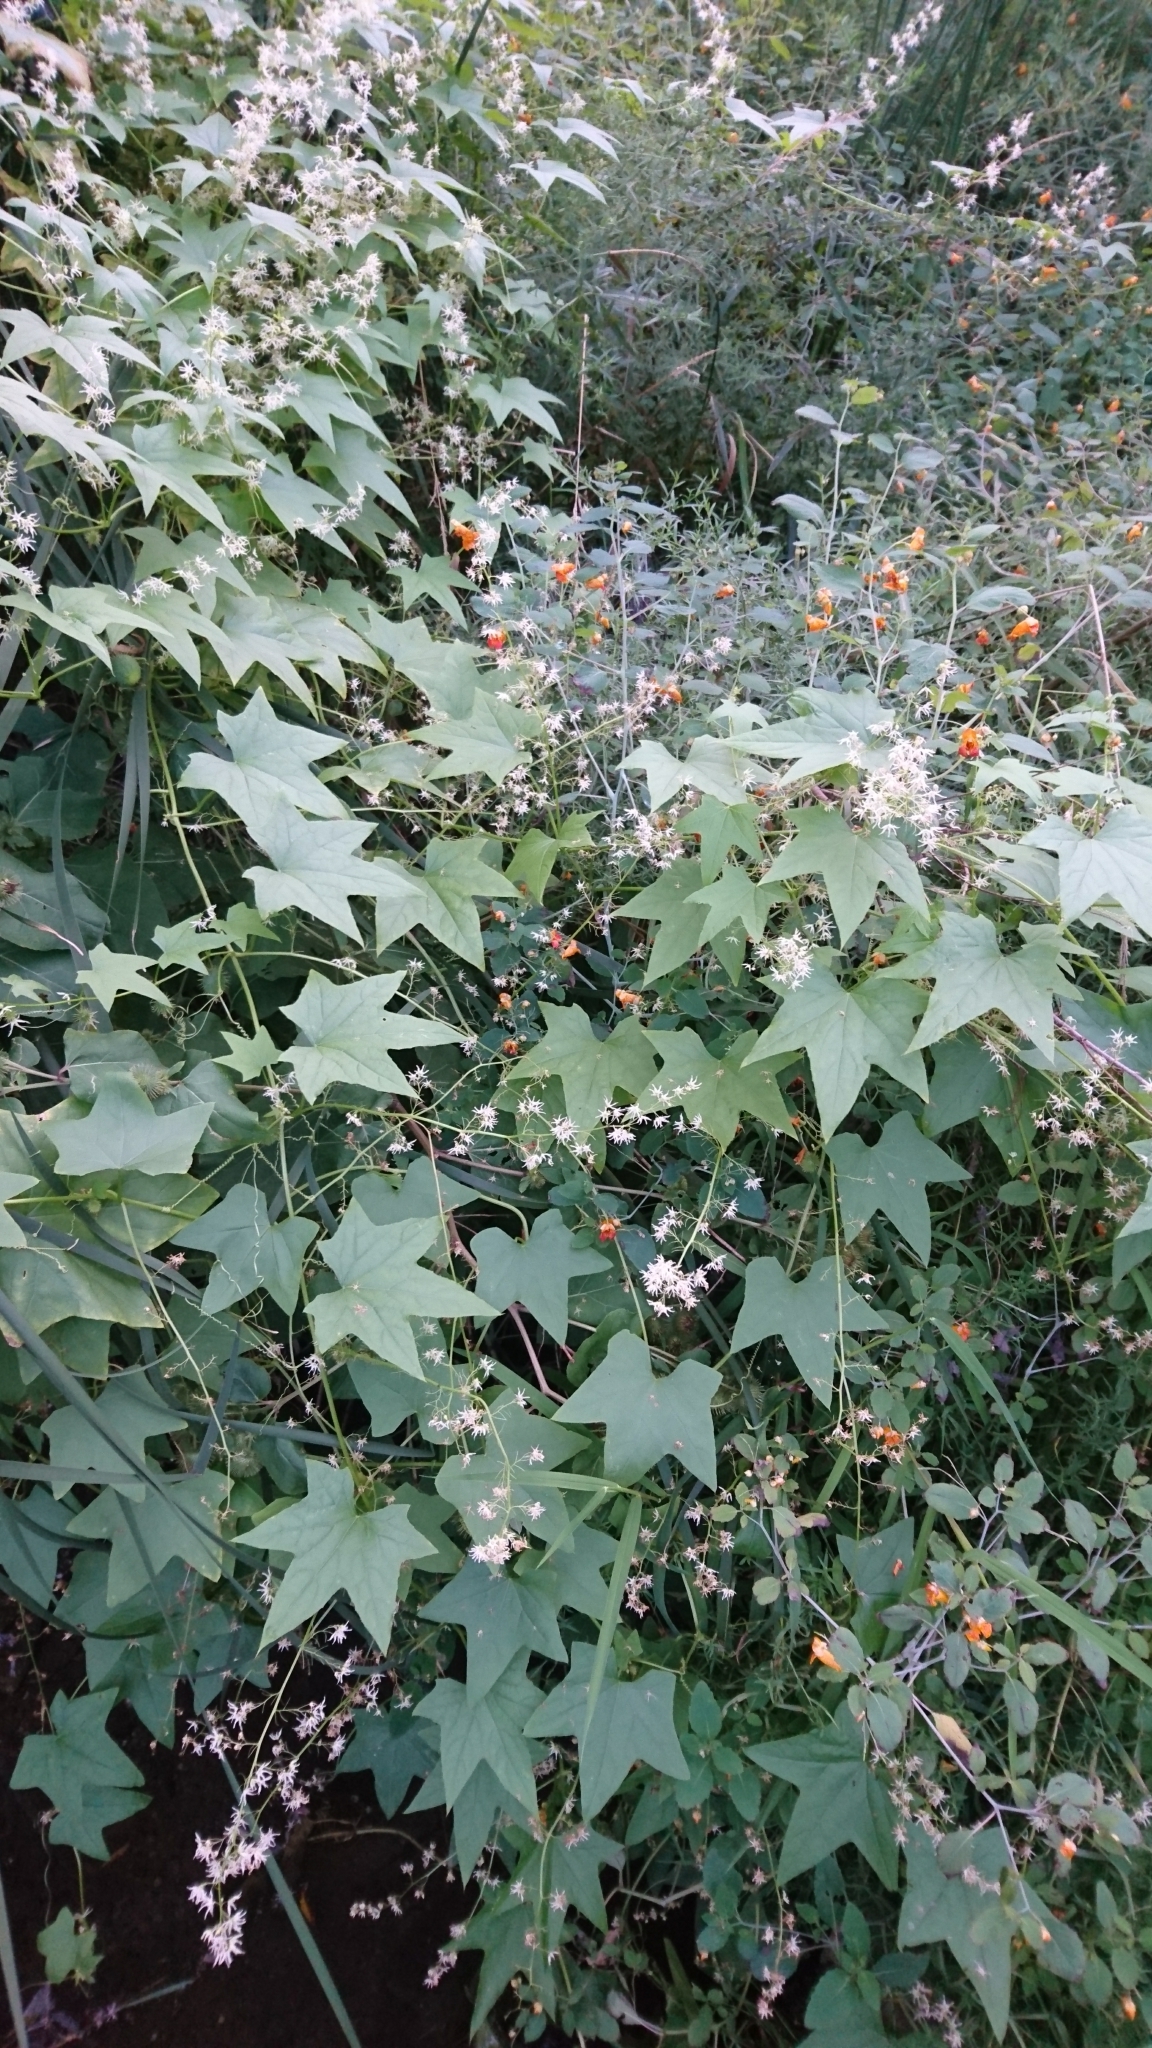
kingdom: Plantae
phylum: Tracheophyta
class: Magnoliopsida
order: Cucurbitales
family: Cucurbitaceae
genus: Echinocystis
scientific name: Echinocystis lobata
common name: Wild cucumber
